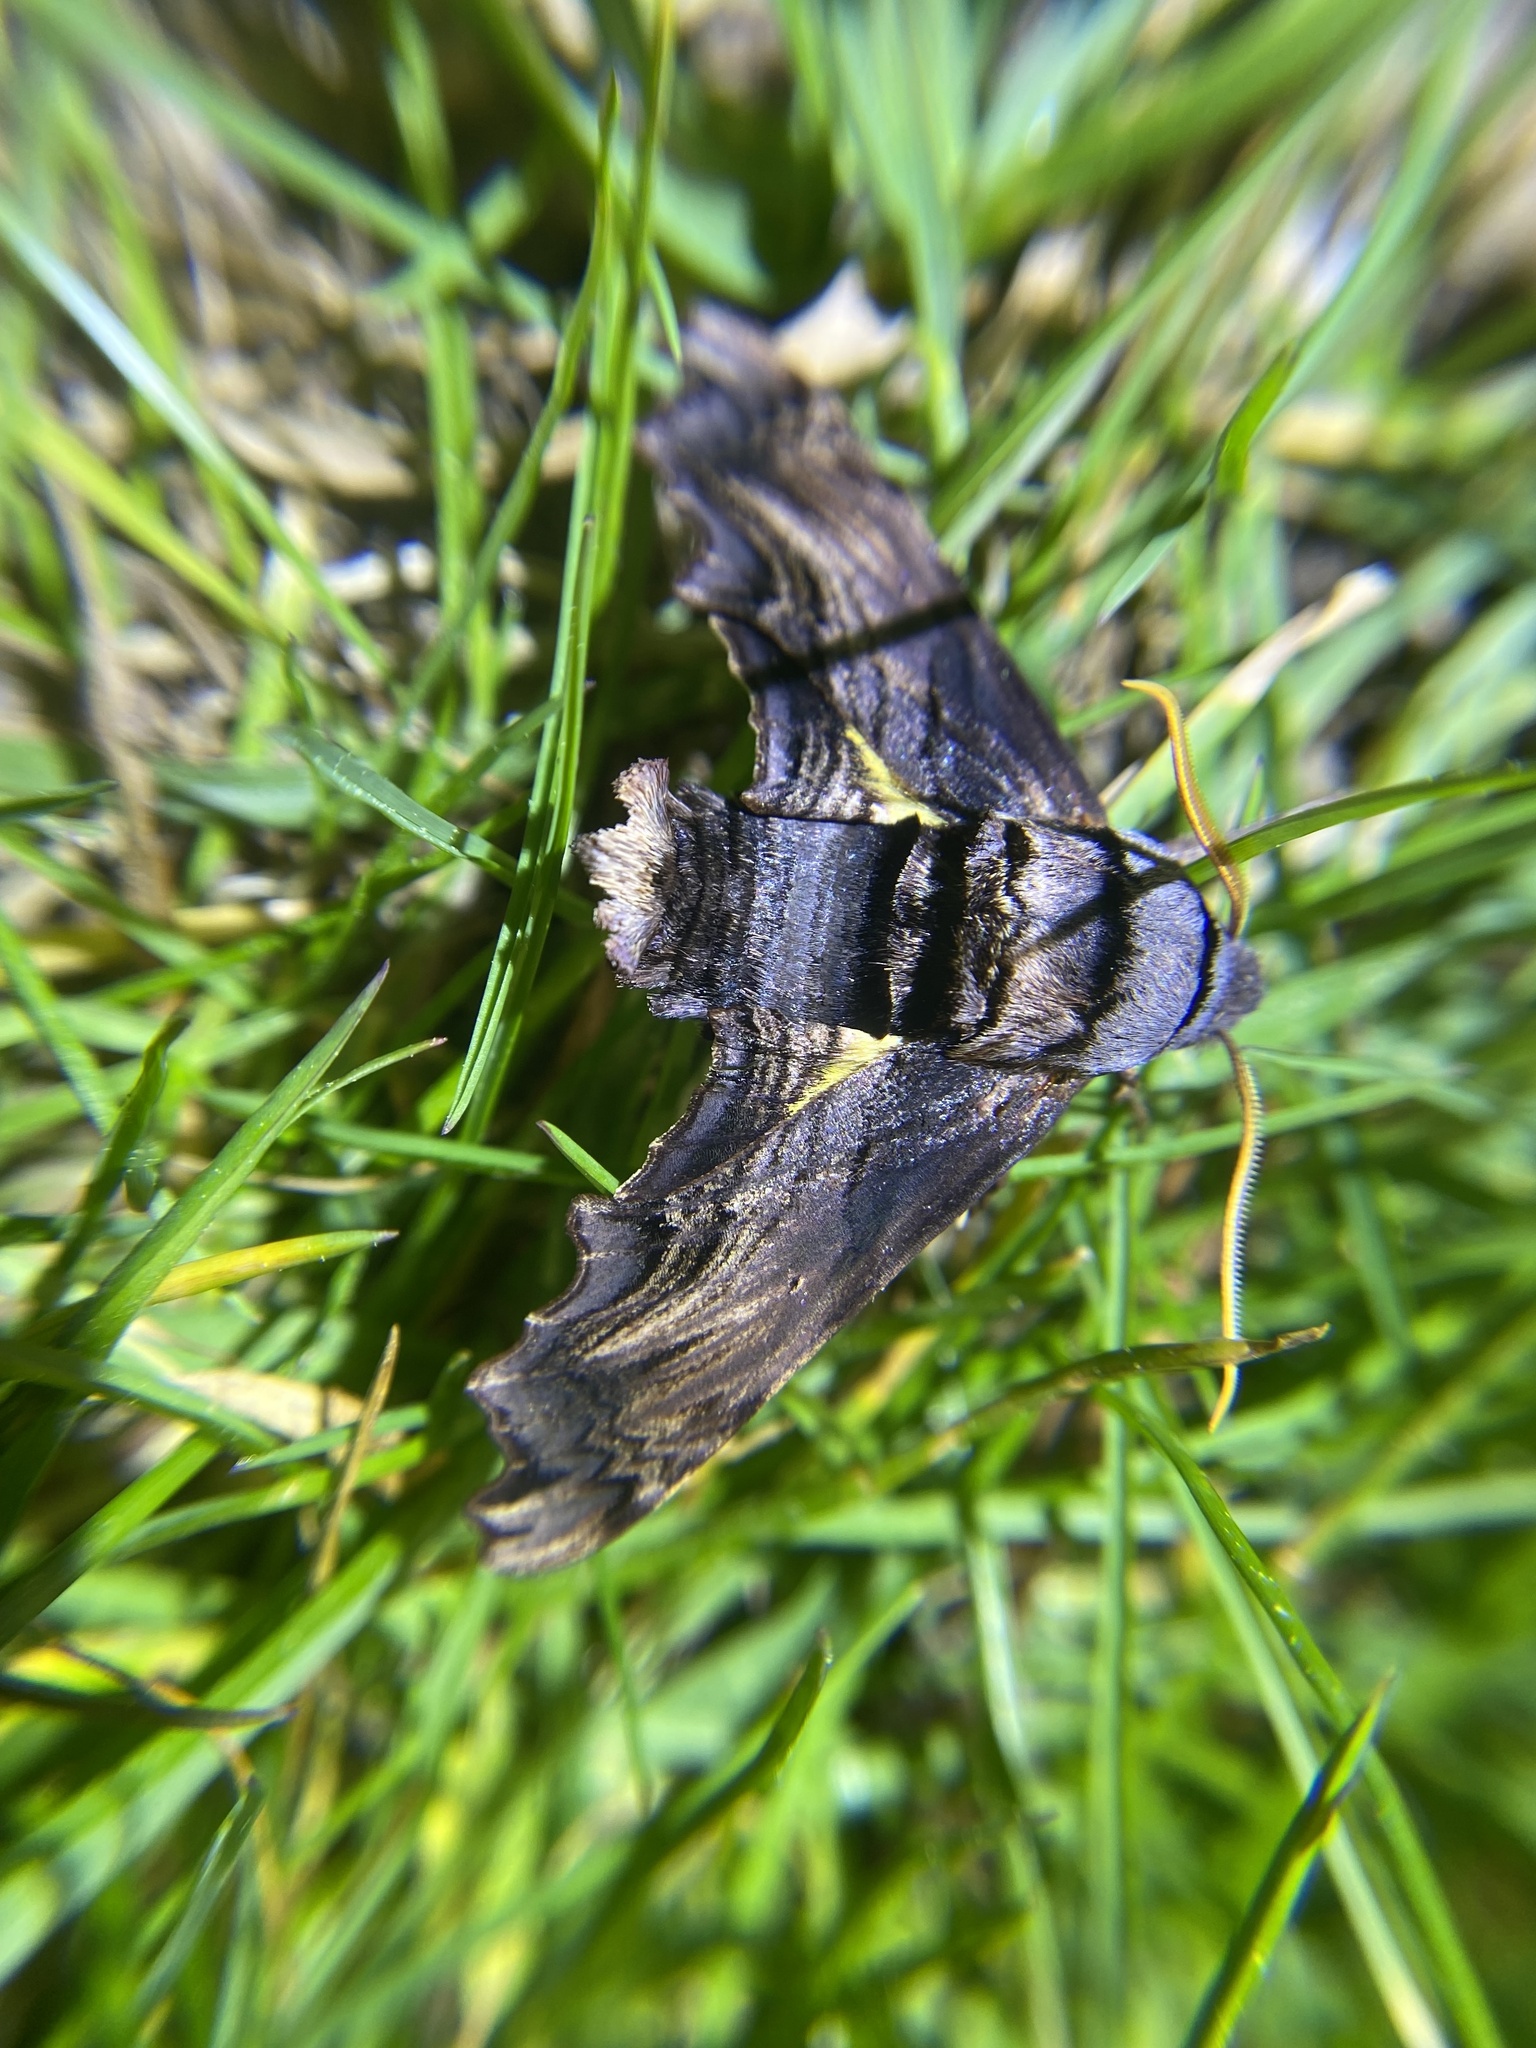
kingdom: Animalia
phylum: Arthropoda
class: Insecta
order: Lepidoptera
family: Sphingidae
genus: Sphecodina
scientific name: Sphecodina abbottii
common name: Abbott's sphinx
